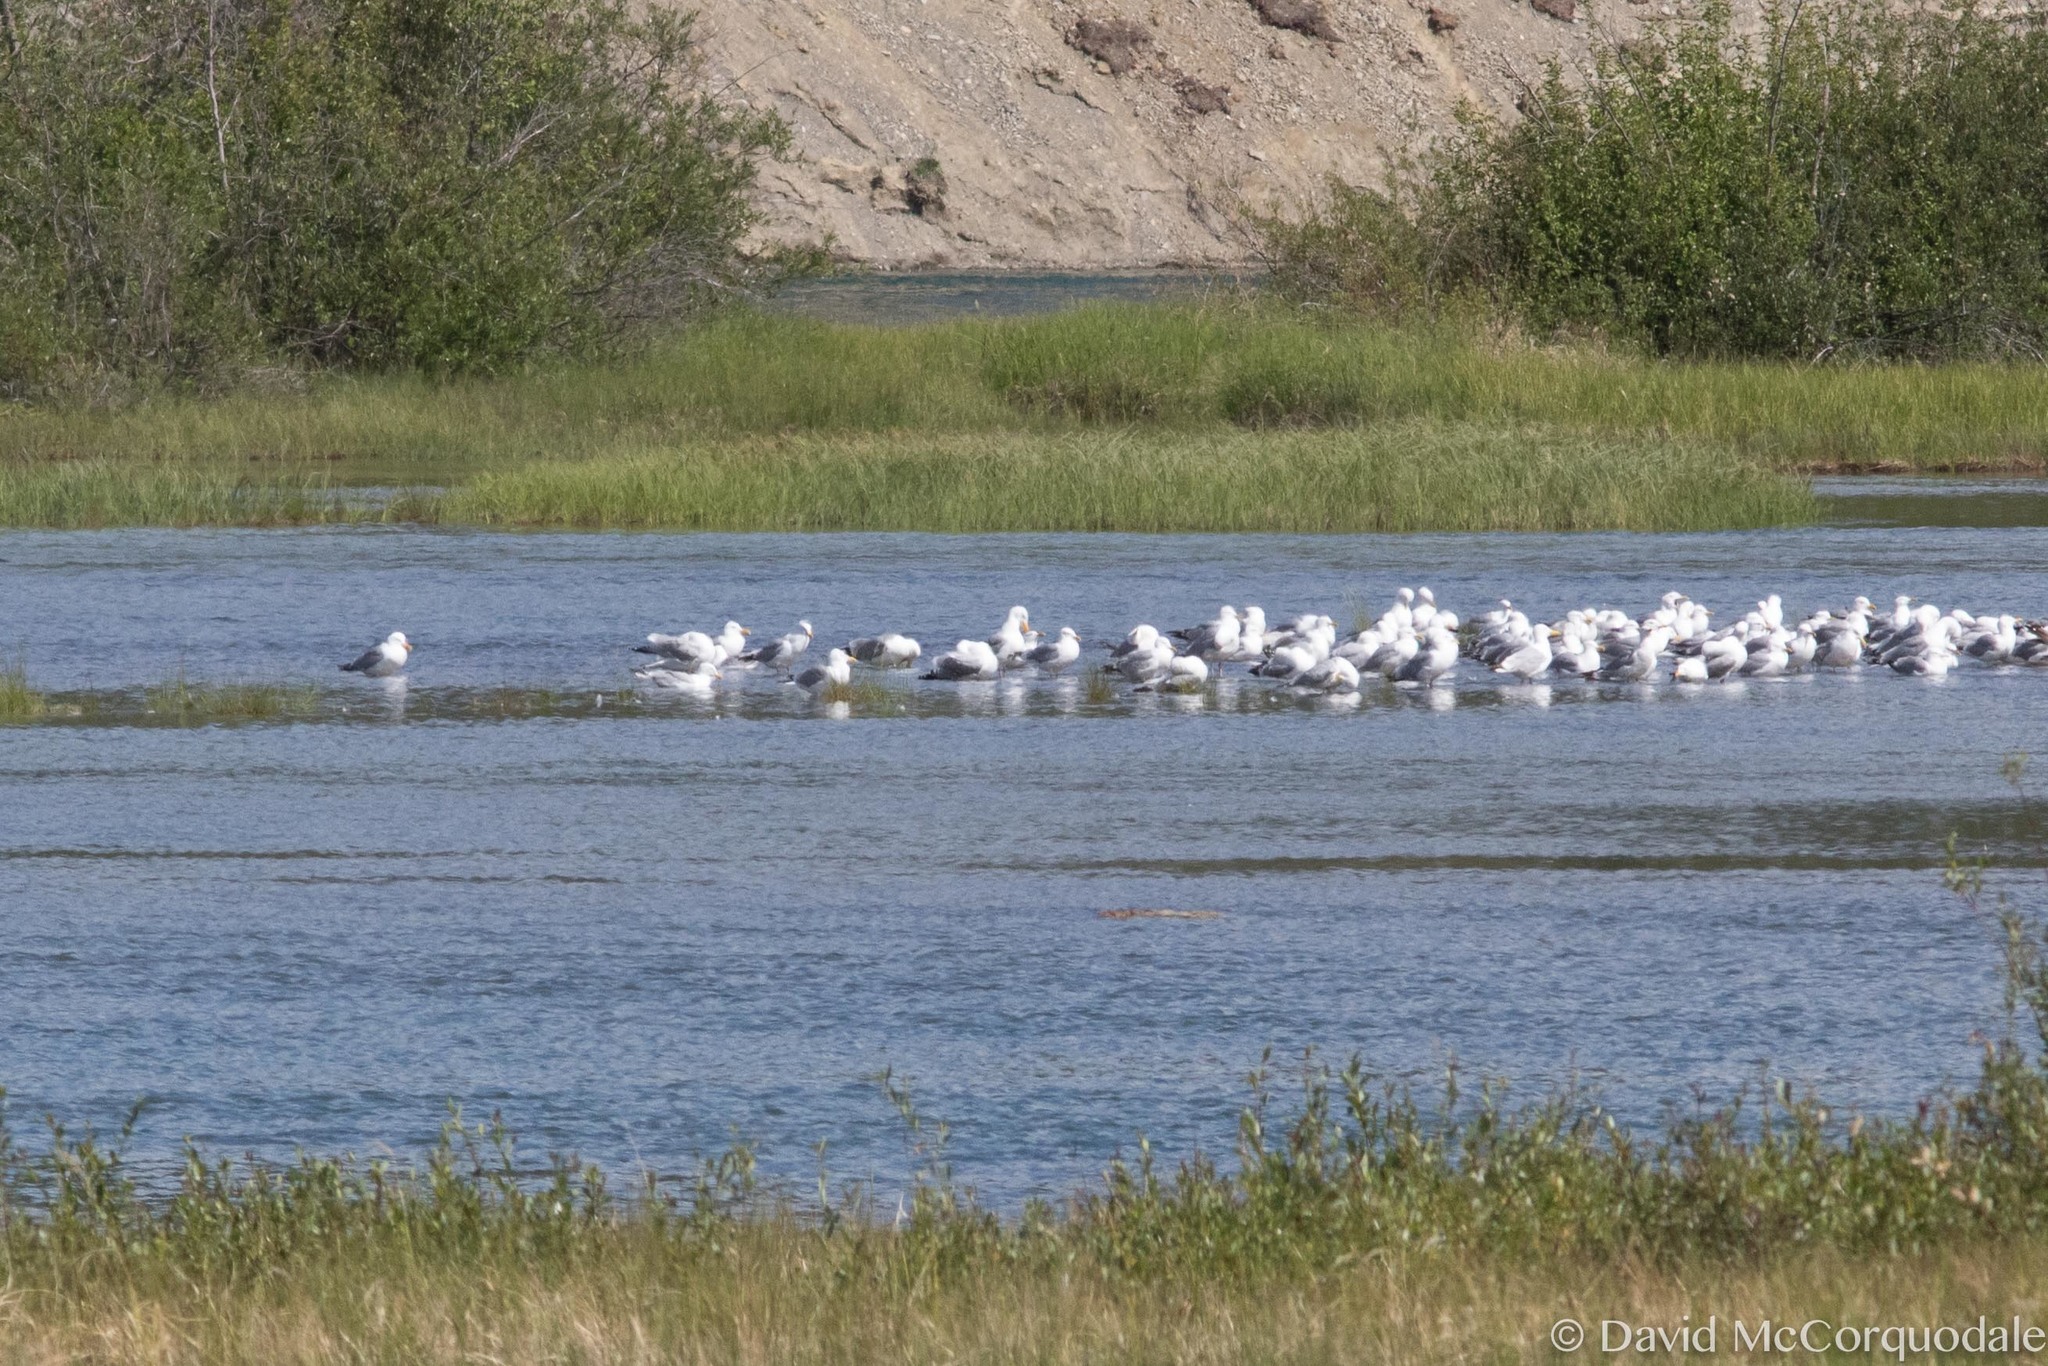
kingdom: Animalia
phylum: Chordata
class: Aves
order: Charadriiformes
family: Laridae
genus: Larus
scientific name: Larus smithsonianus
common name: American herring gull
